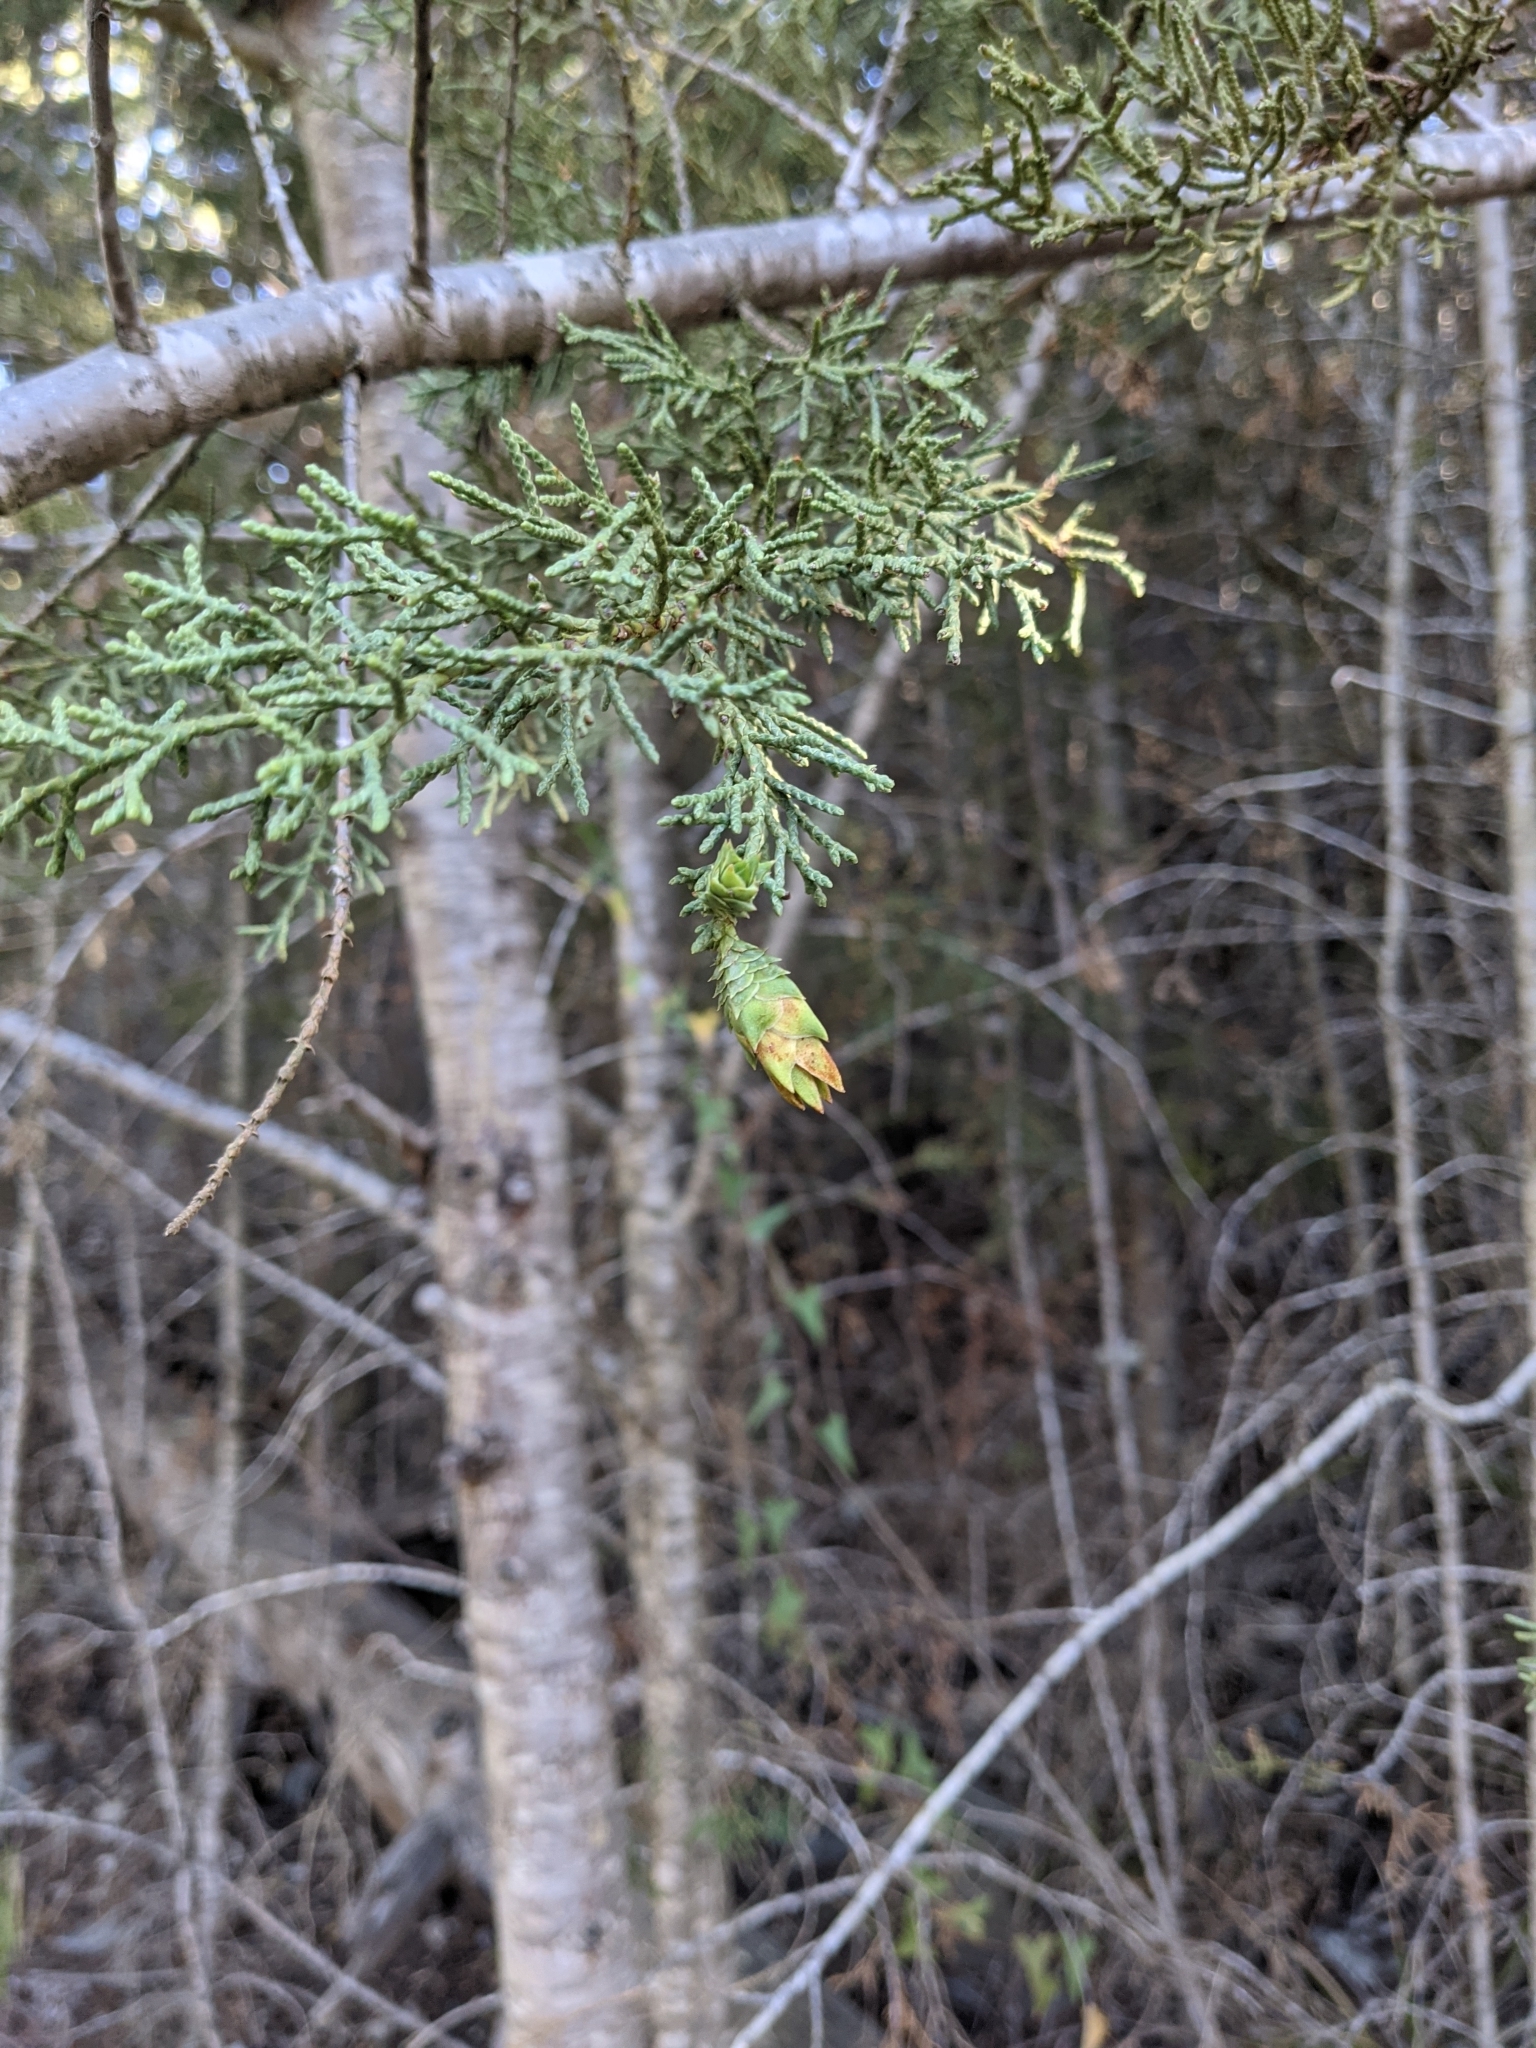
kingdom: Plantae
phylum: Tracheophyta
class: Pinopsida
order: Pinales
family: Cupressaceae
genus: Cupressus
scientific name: Cupressus sargentii
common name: Sargent cypress
